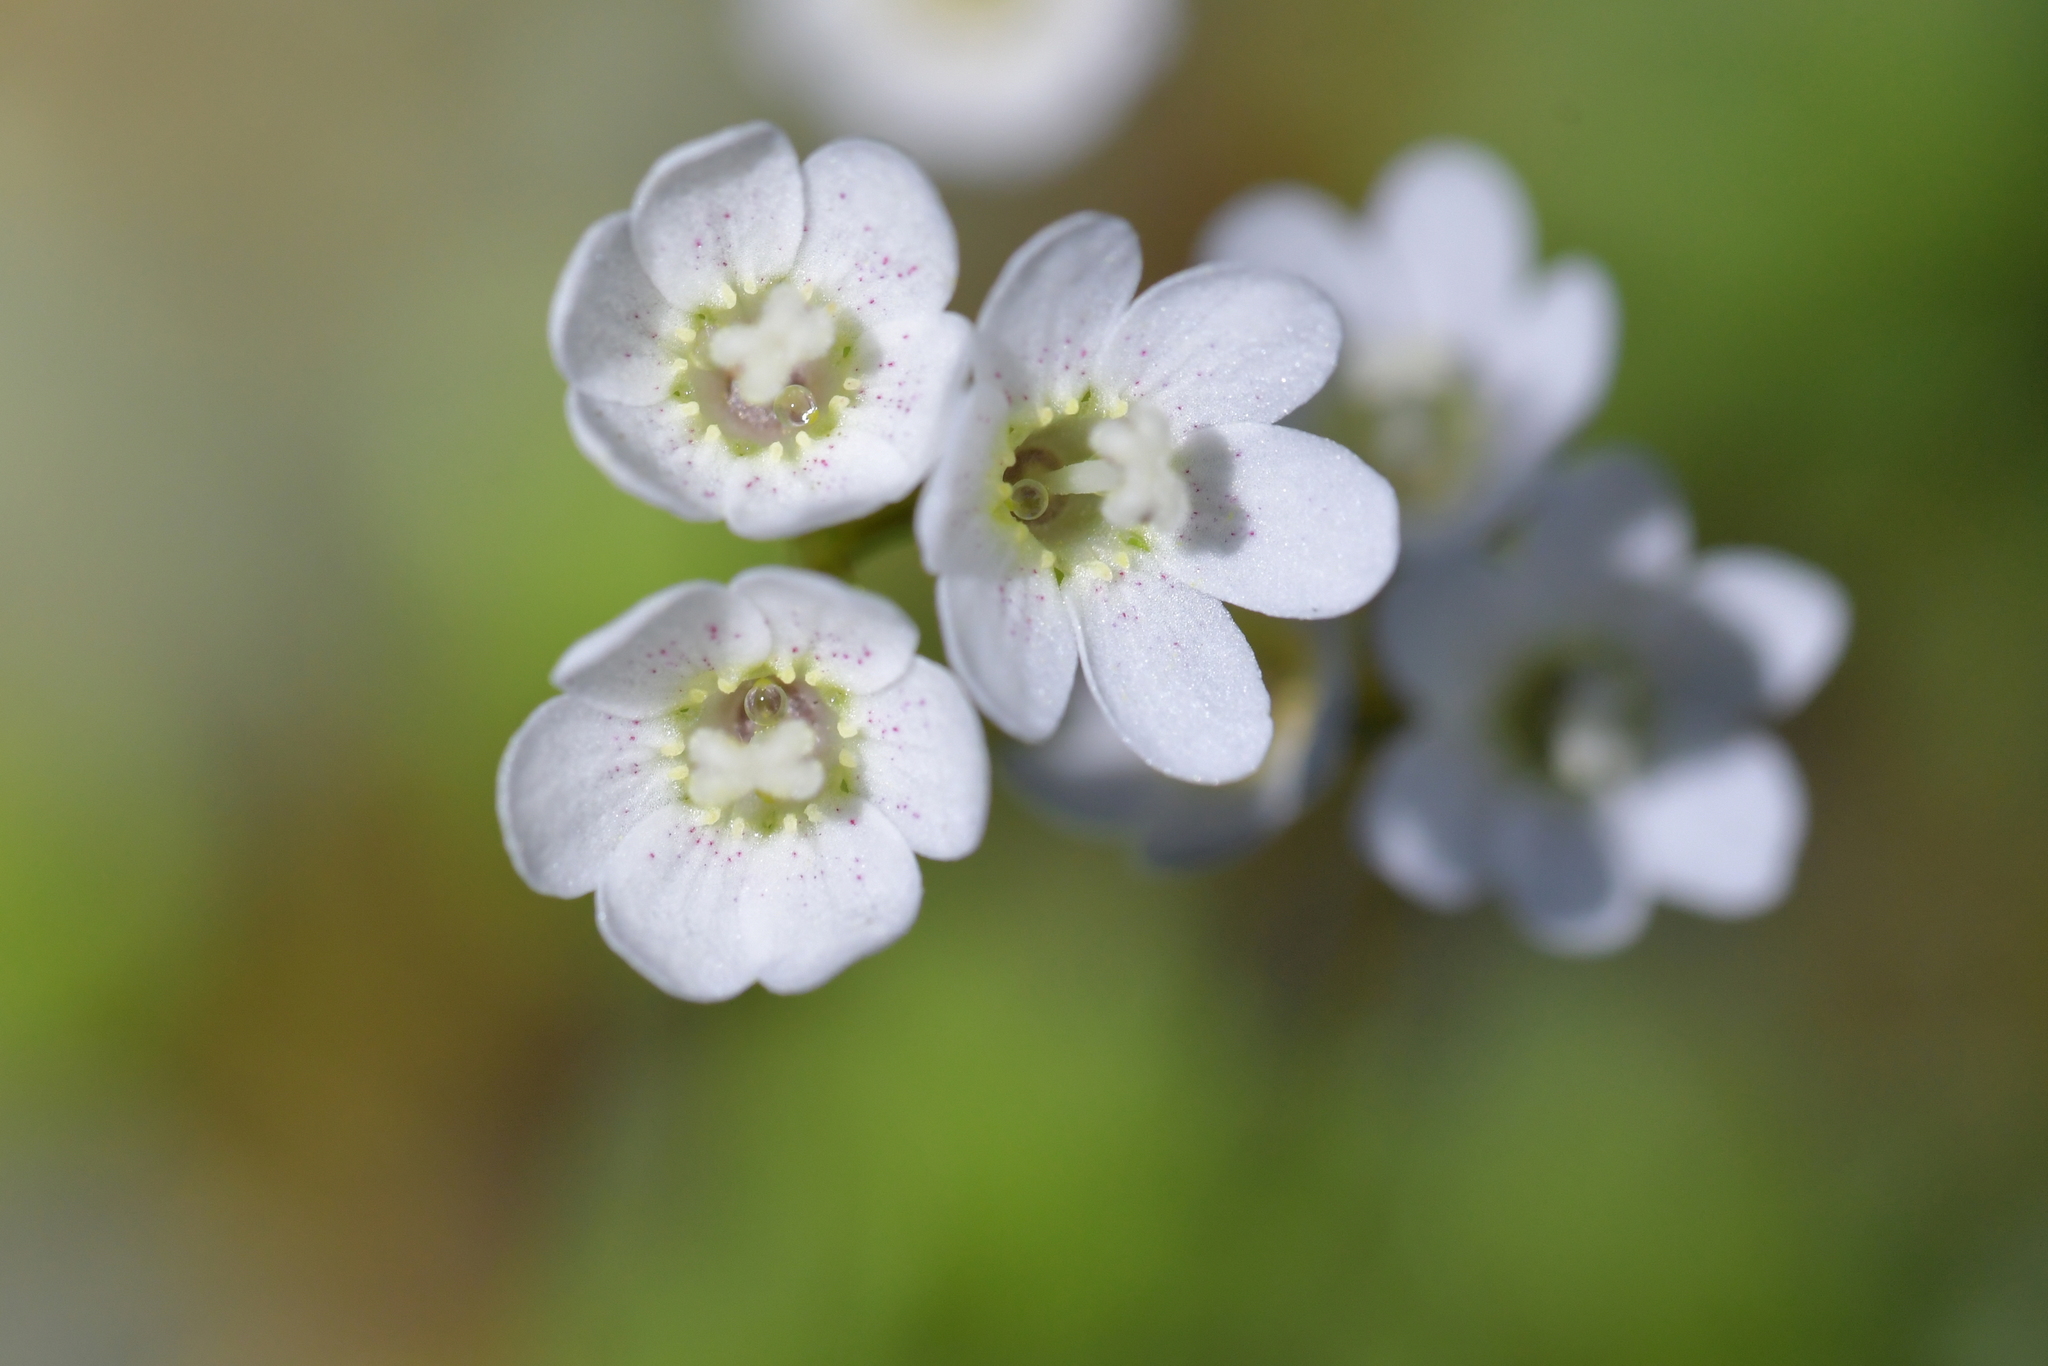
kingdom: Plantae
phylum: Tracheophyta
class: Magnoliopsida
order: Asterales
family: Stylidiaceae
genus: Forstera
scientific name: Forstera tenella
